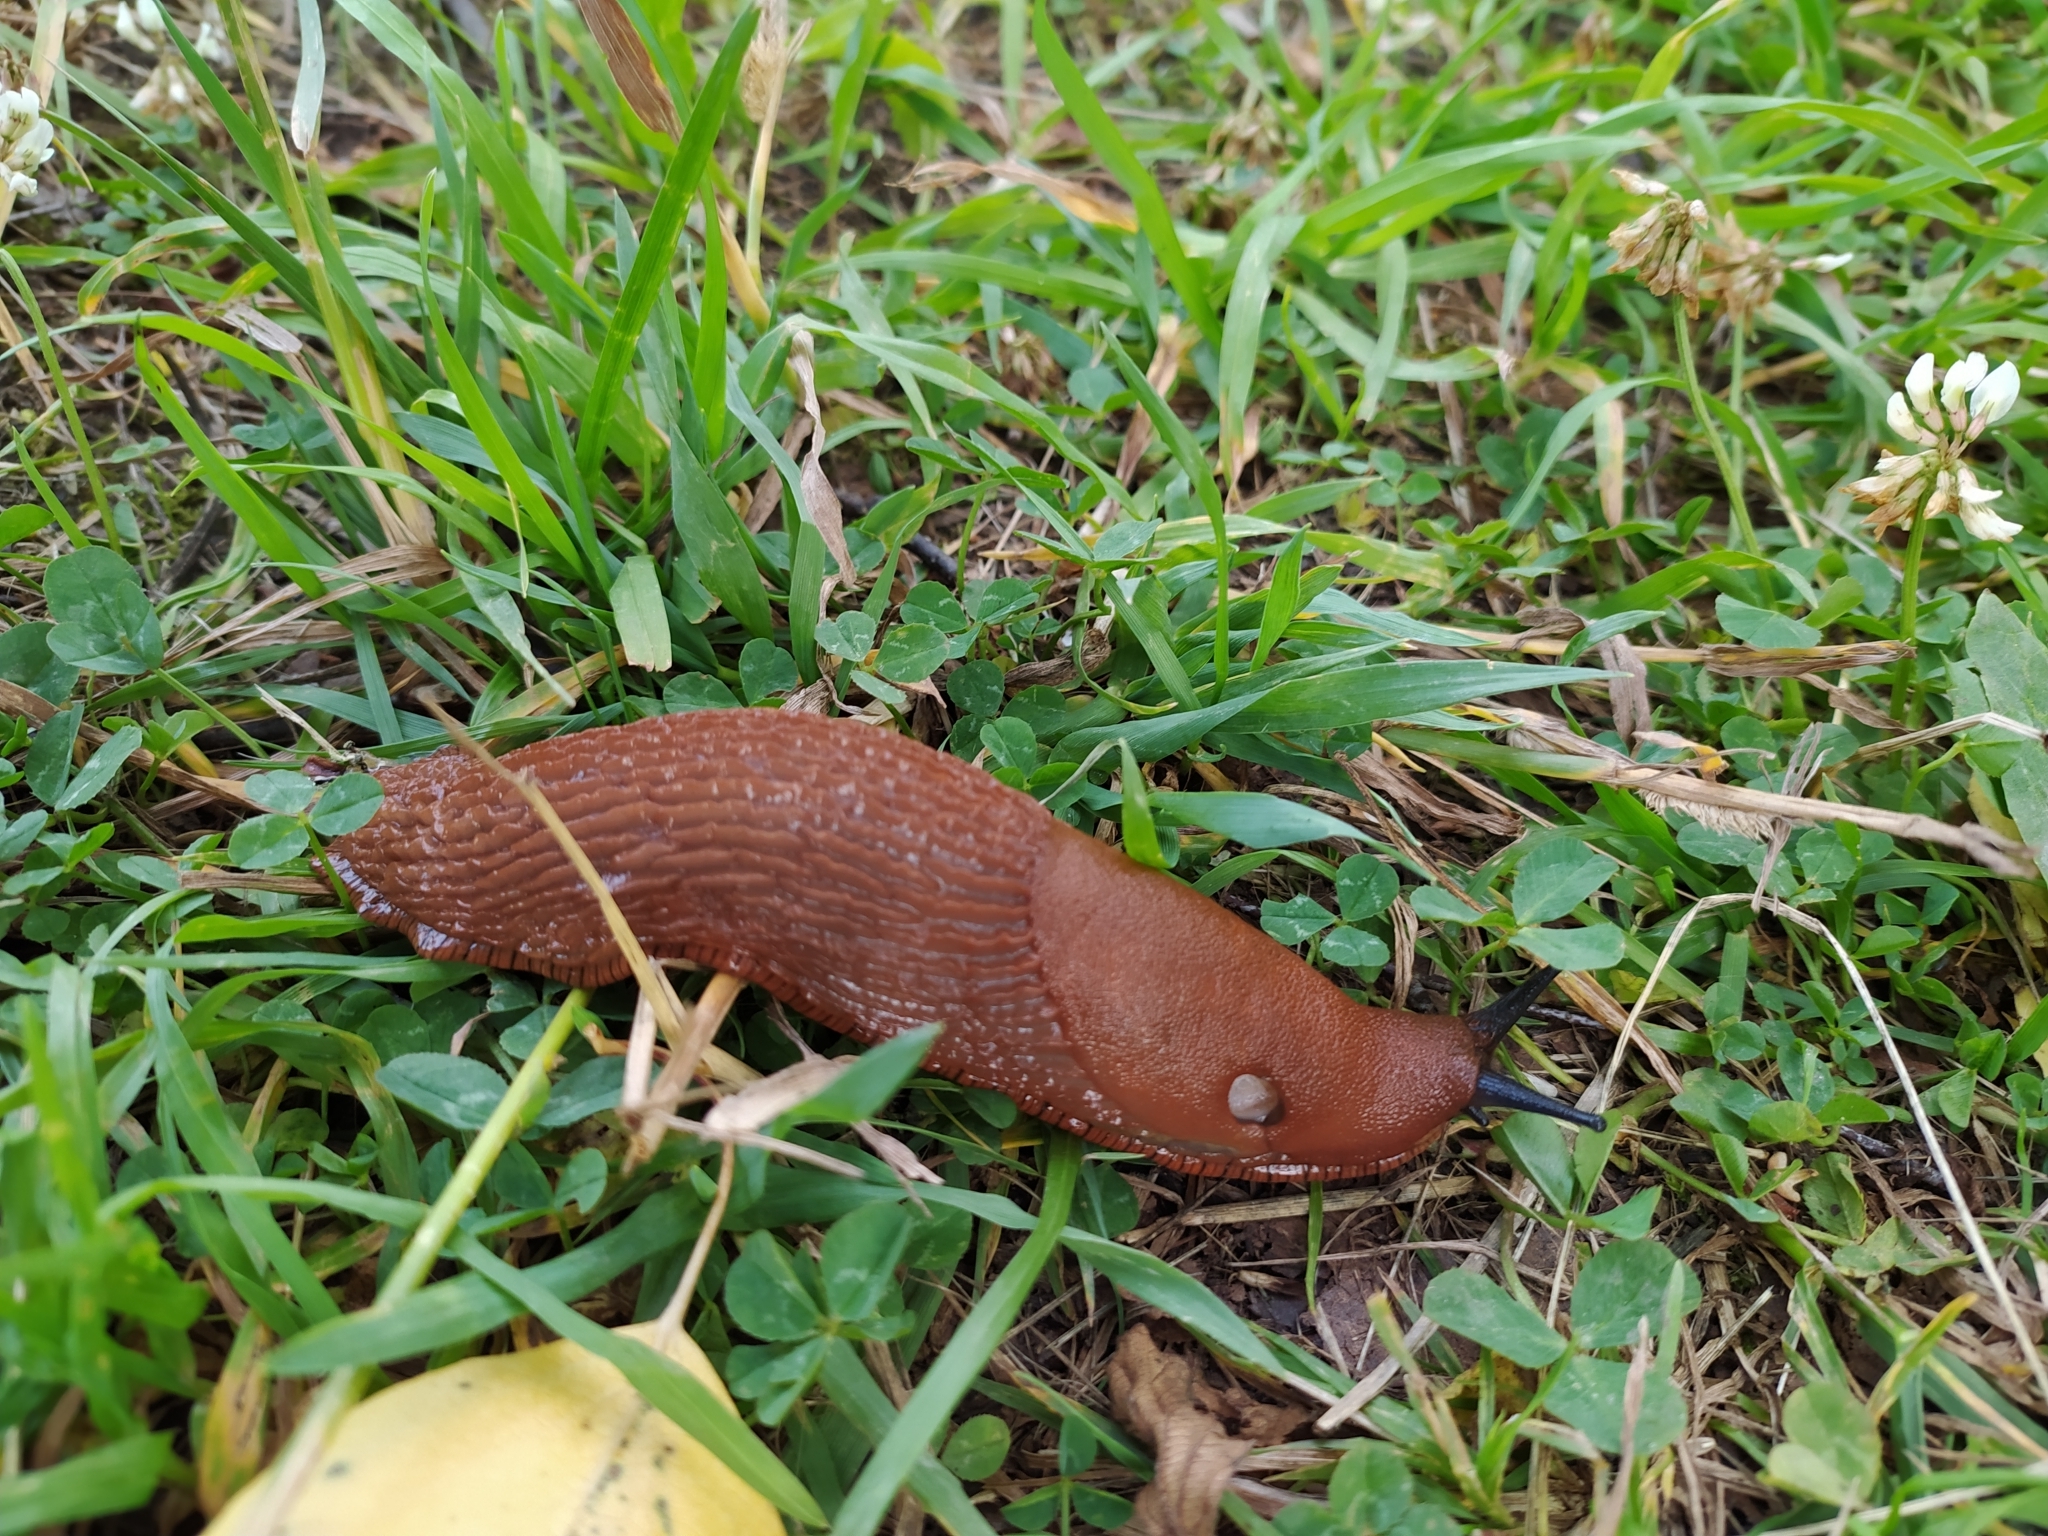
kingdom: Animalia
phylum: Mollusca
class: Gastropoda
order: Stylommatophora
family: Arionidae
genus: Arion
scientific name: Arion vulgaris
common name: Lusitanian slug
